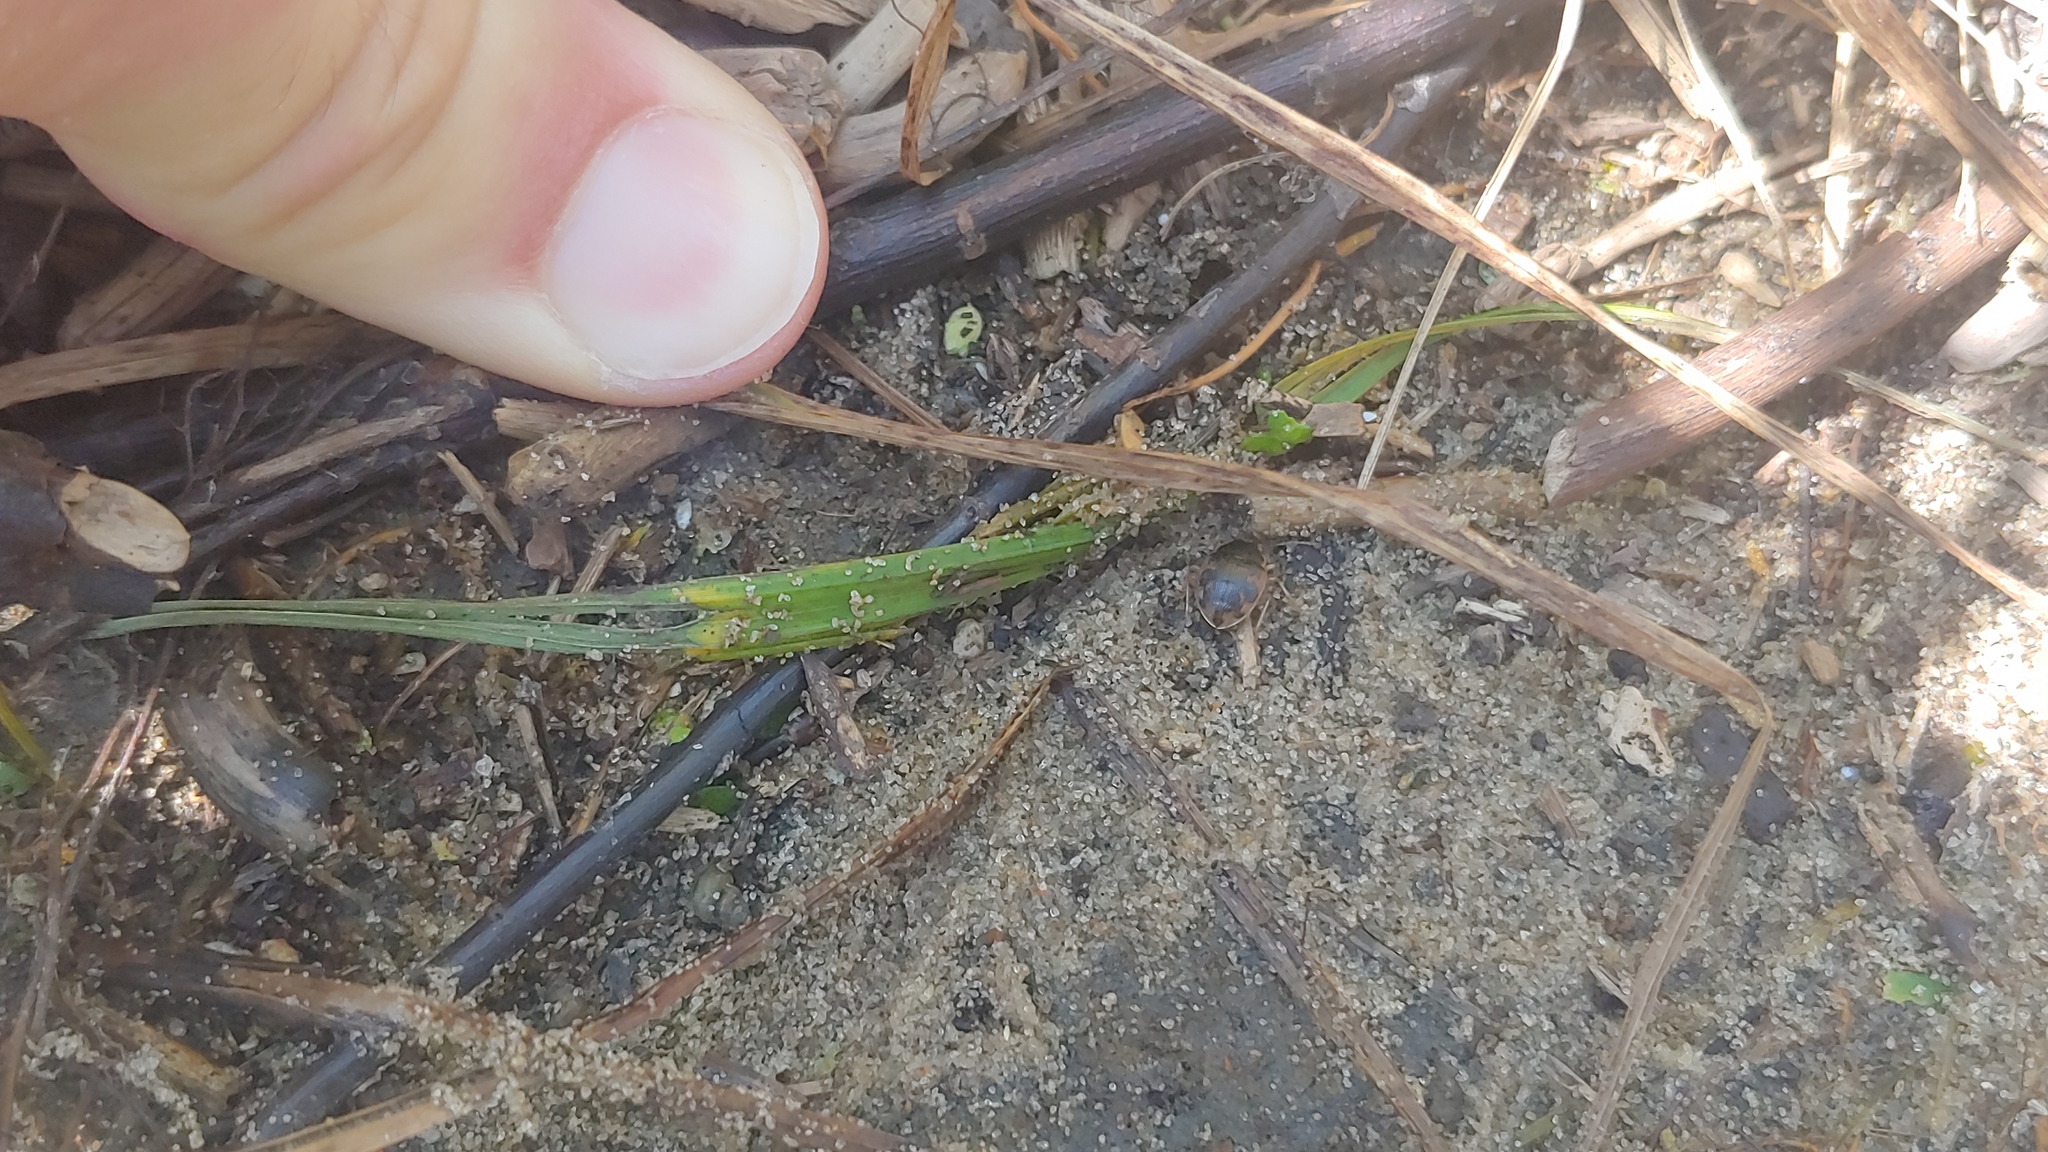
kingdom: Animalia
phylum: Arthropoda
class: Insecta
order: Coleoptera
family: Carabidae
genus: Omophron
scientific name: Omophron americanum
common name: American round sand beetle
